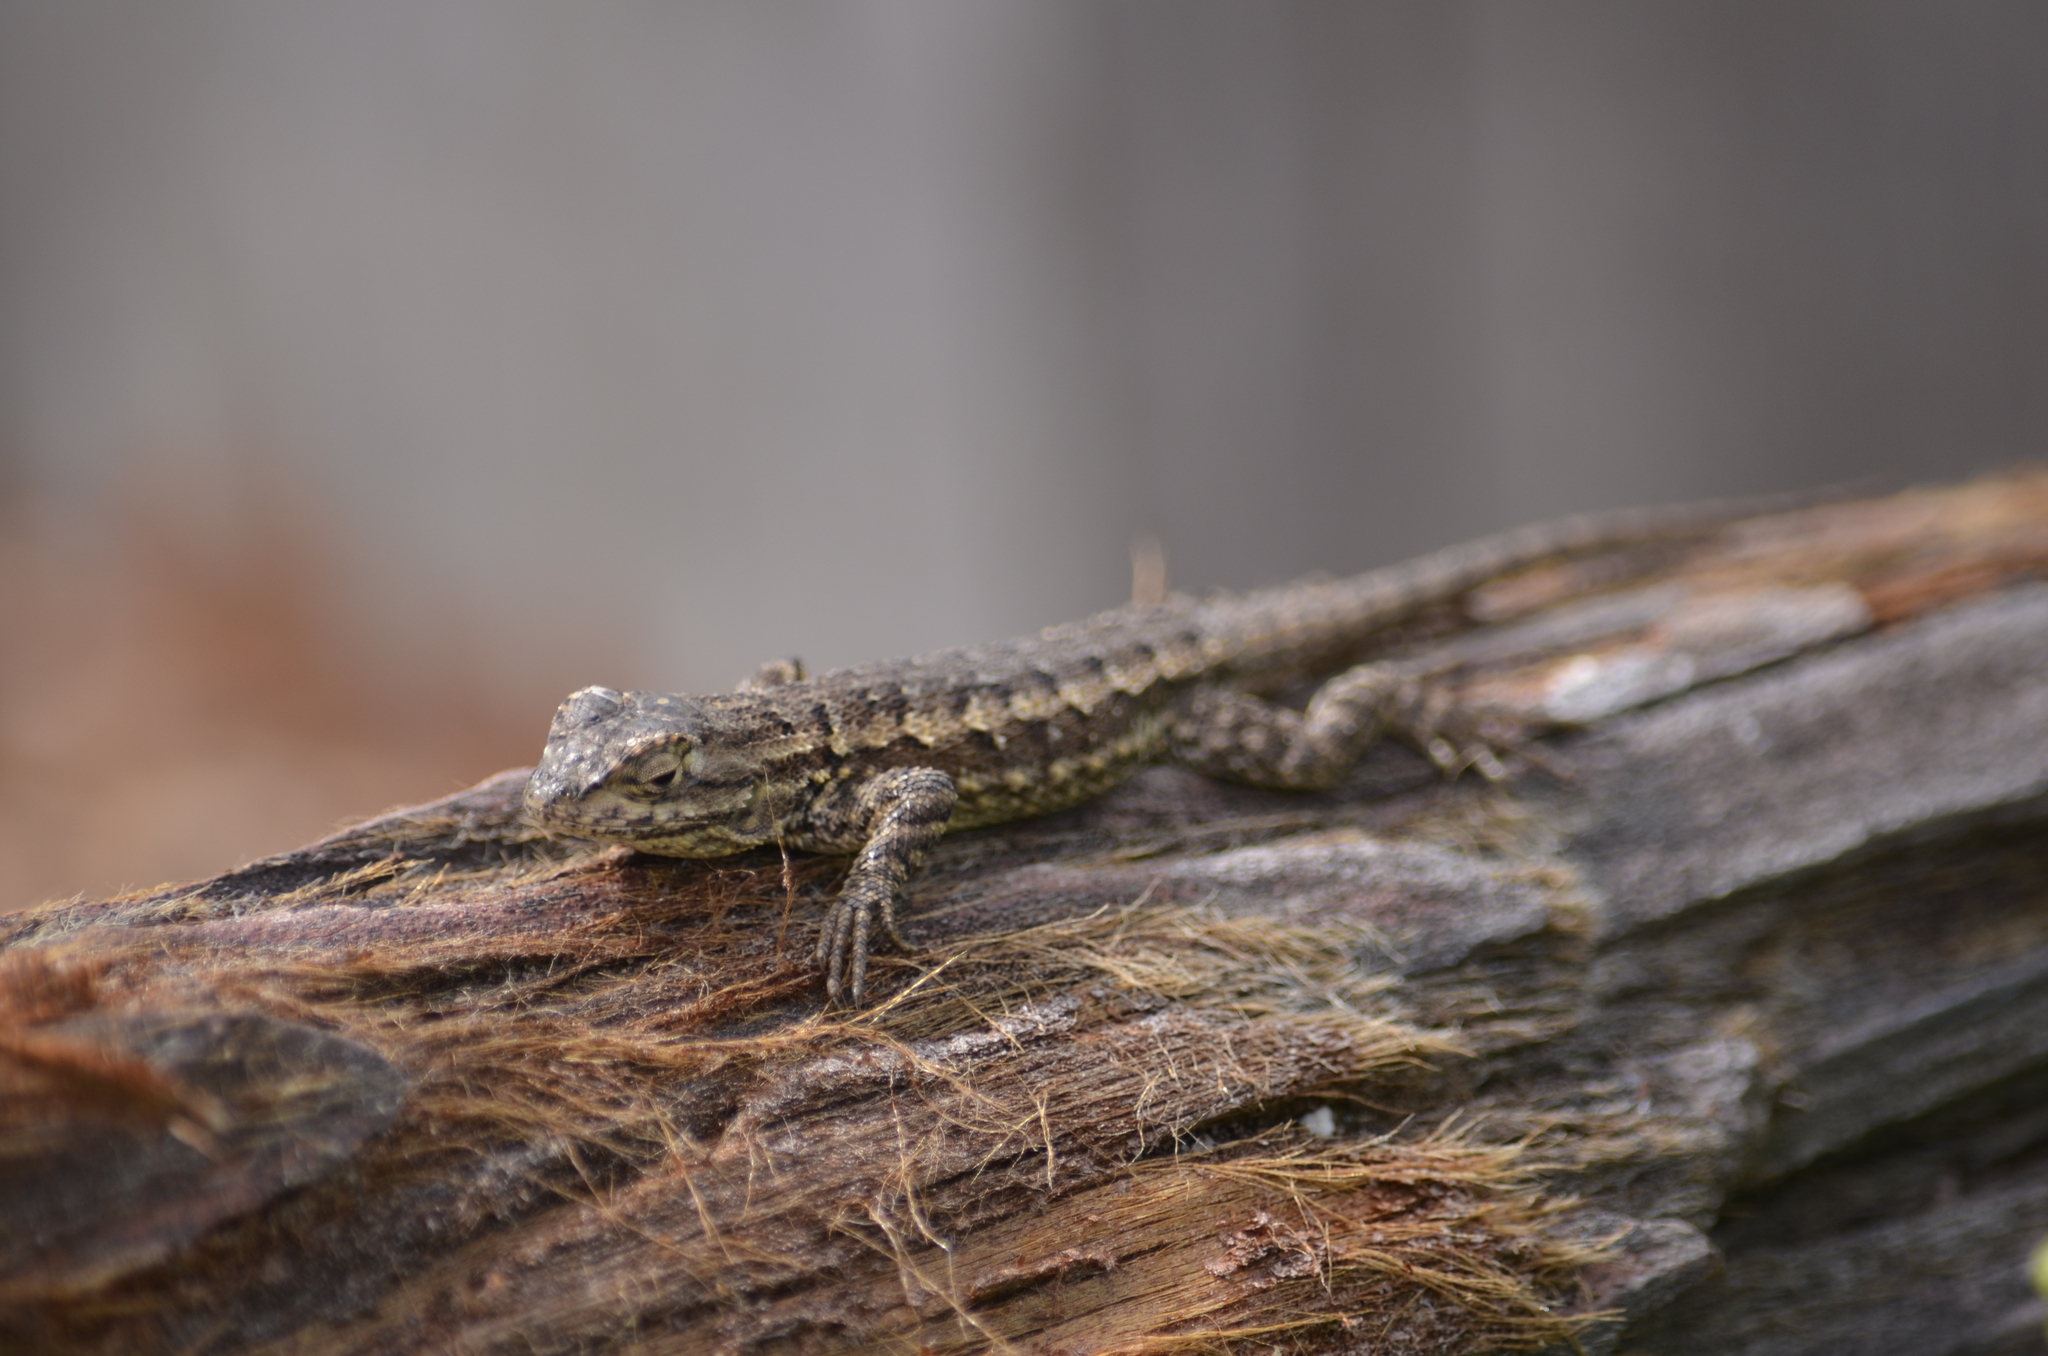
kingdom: Animalia
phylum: Chordata
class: Squamata
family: Phrynosomatidae
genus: Sceloporus
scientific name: Sceloporus occidentalis
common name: Western fence lizard
